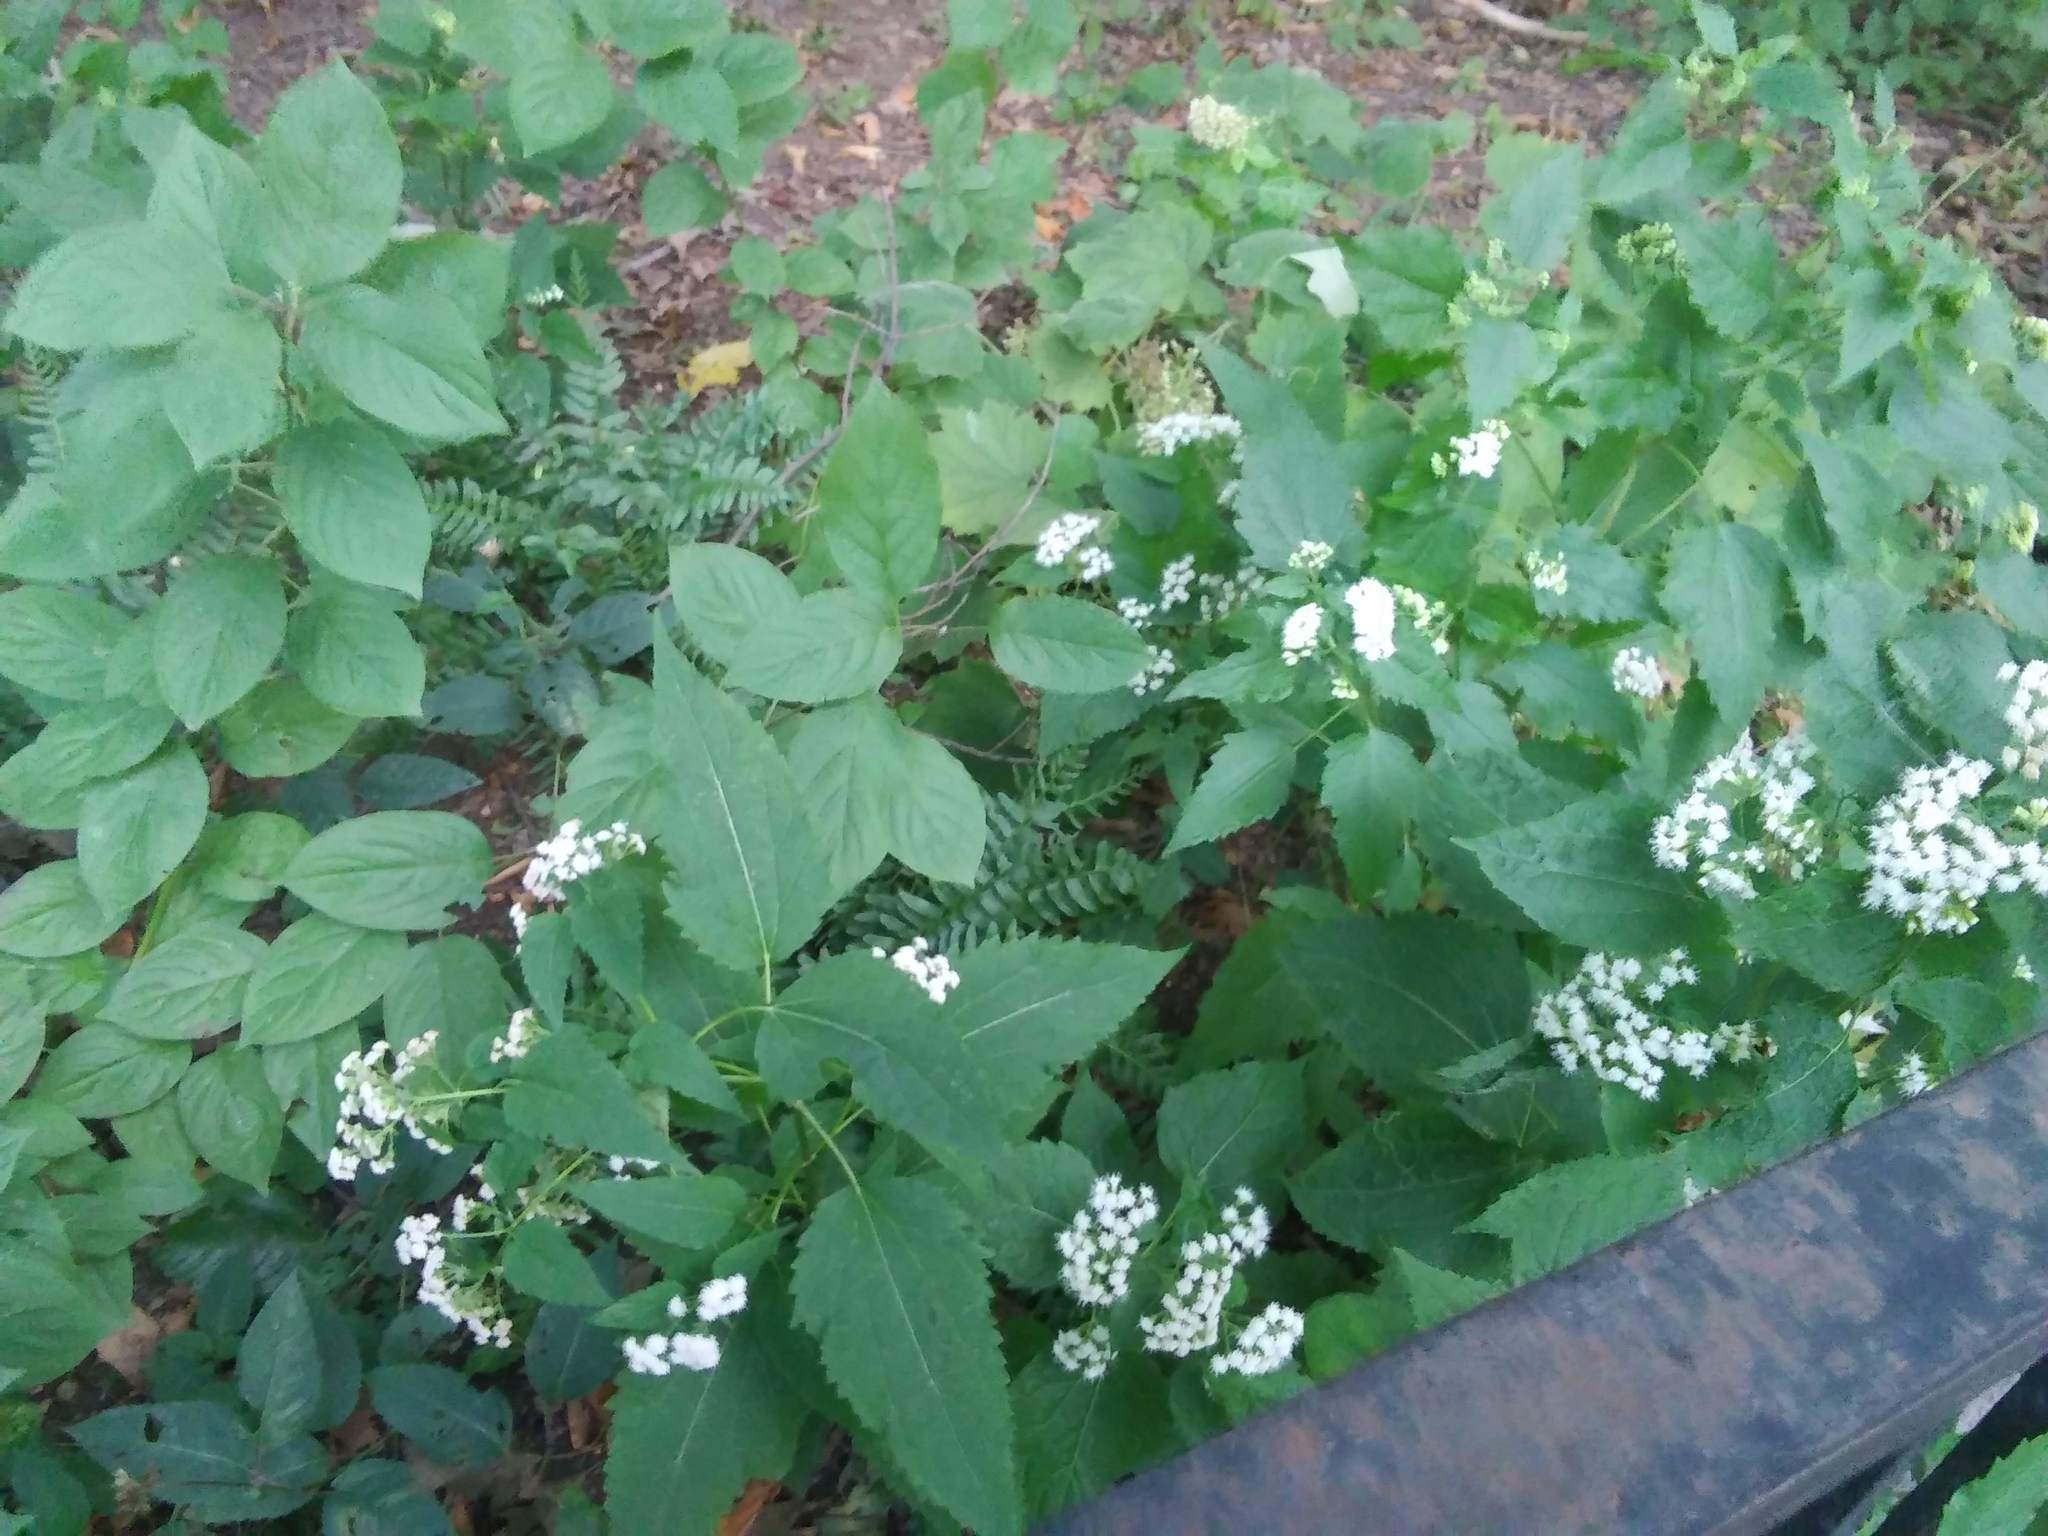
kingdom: Plantae
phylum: Tracheophyta
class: Magnoliopsida
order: Asterales
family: Asteraceae
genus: Ageratina
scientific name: Ageratina altissima
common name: White snakeroot
